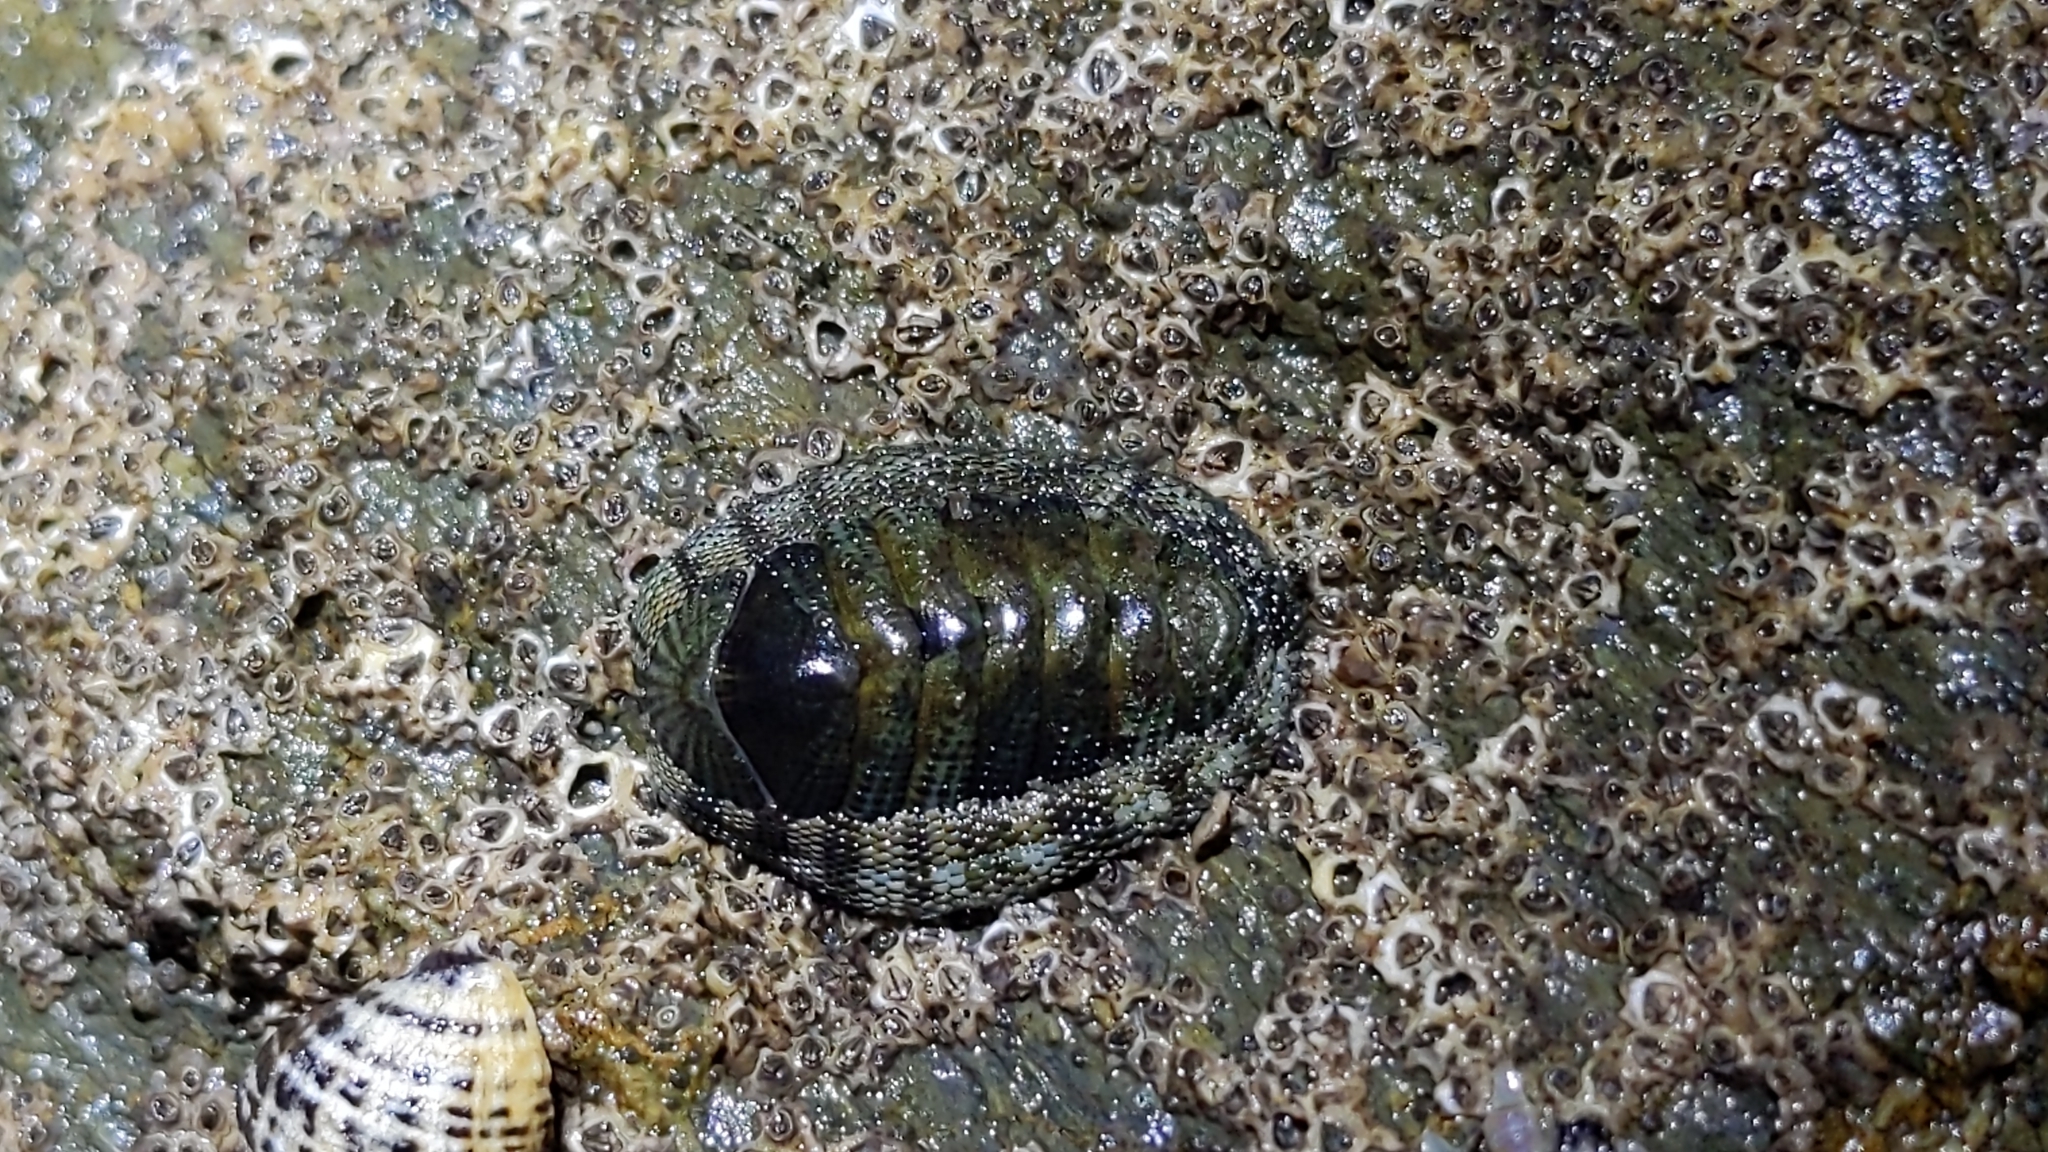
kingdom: Animalia
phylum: Mollusca
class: Polyplacophora
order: Chitonida
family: Chitonidae
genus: Sypharochiton
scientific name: Sypharochiton pelliserpentis
